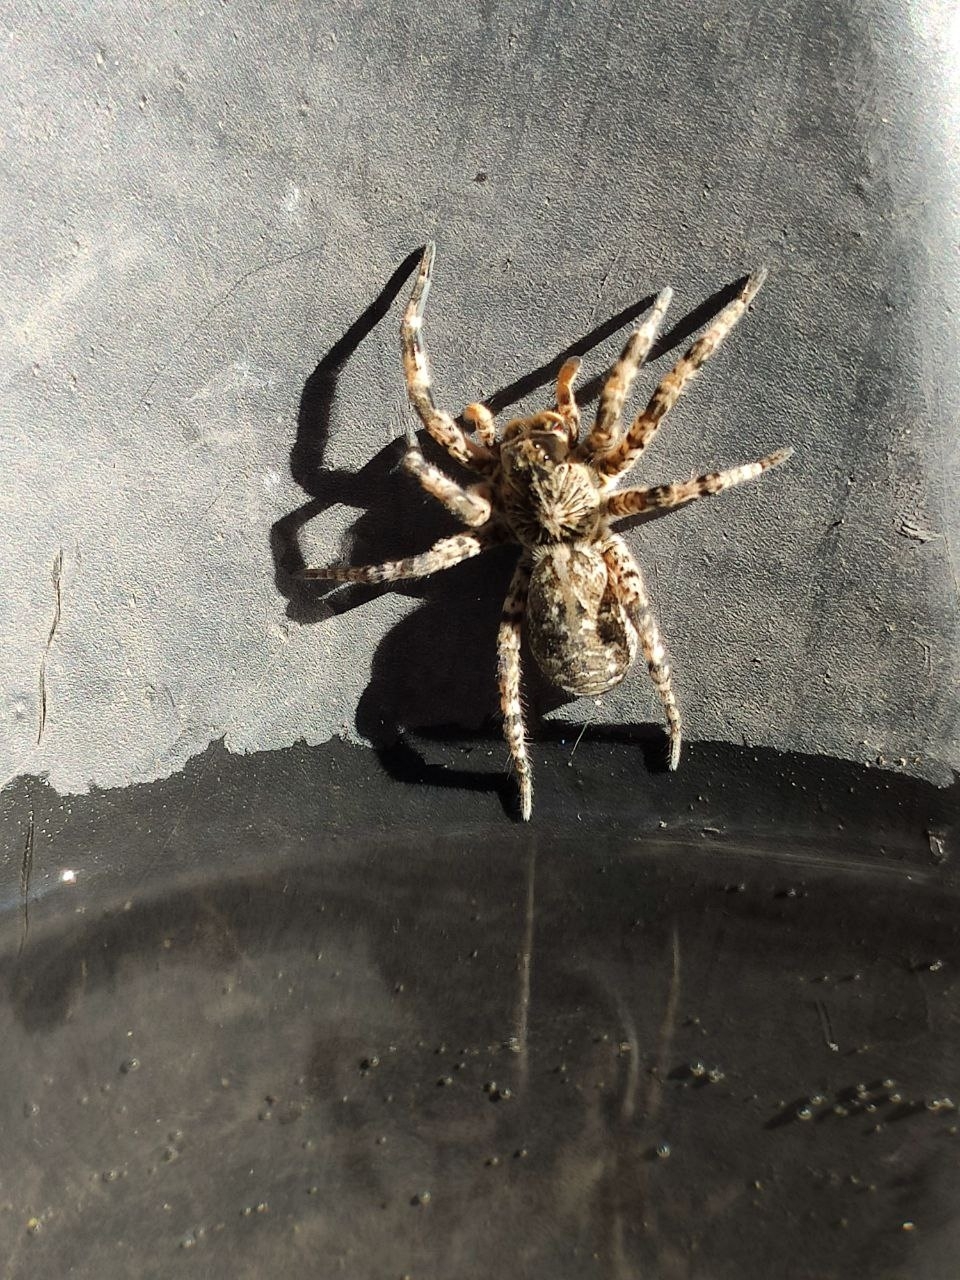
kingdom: Animalia
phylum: Arthropoda
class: Arachnida
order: Araneae
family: Lycosidae
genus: Lycosa
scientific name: Lycosa singoriensis
